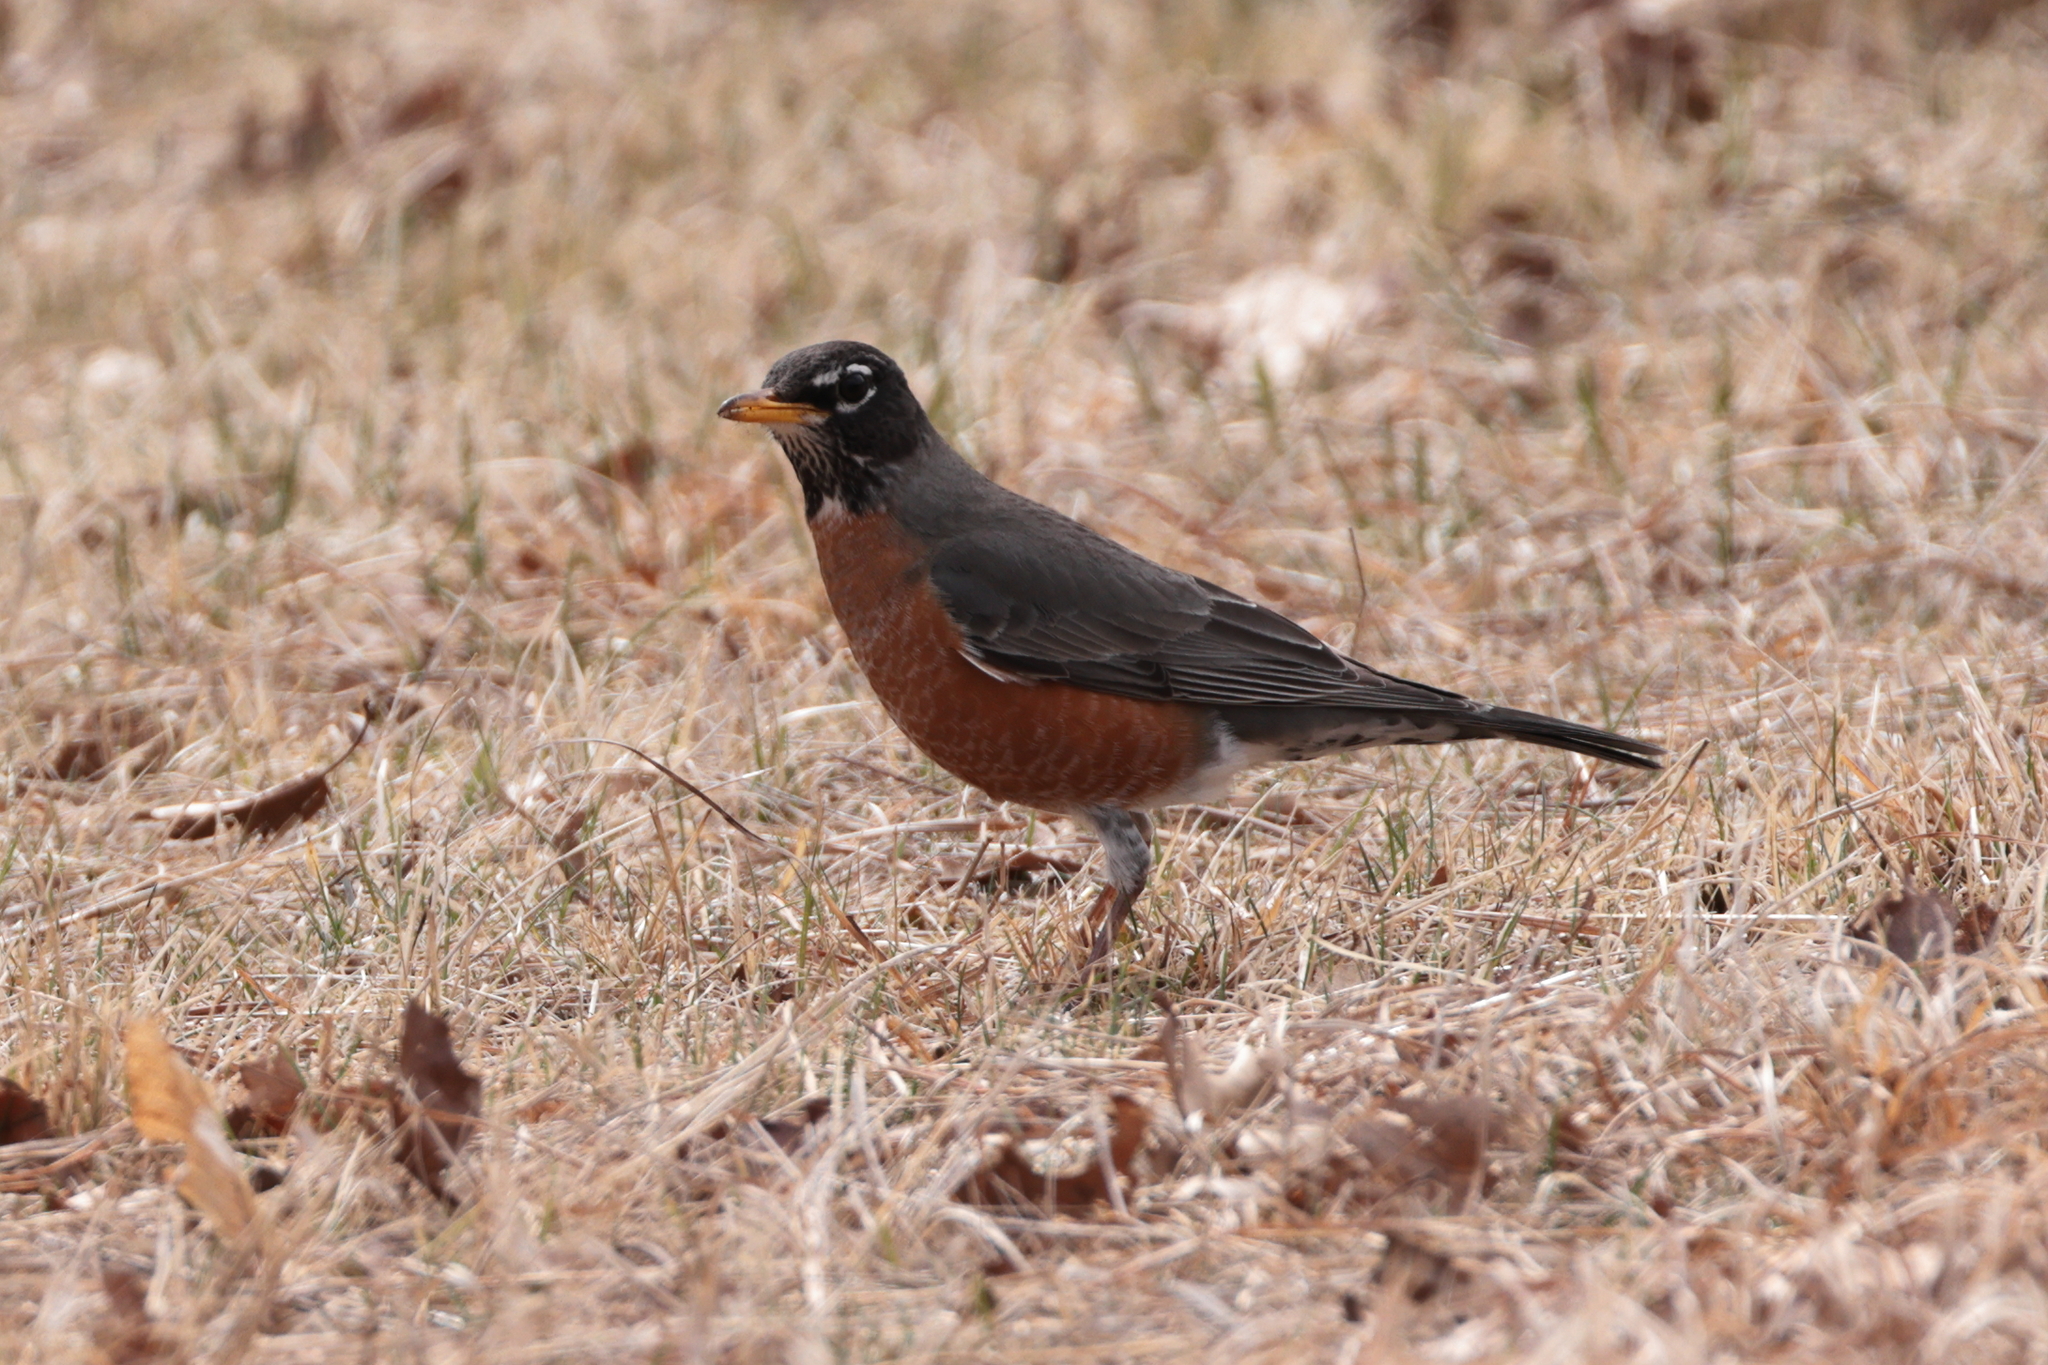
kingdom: Animalia
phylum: Chordata
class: Aves
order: Passeriformes
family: Turdidae
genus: Turdus
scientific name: Turdus migratorius
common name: American robin
